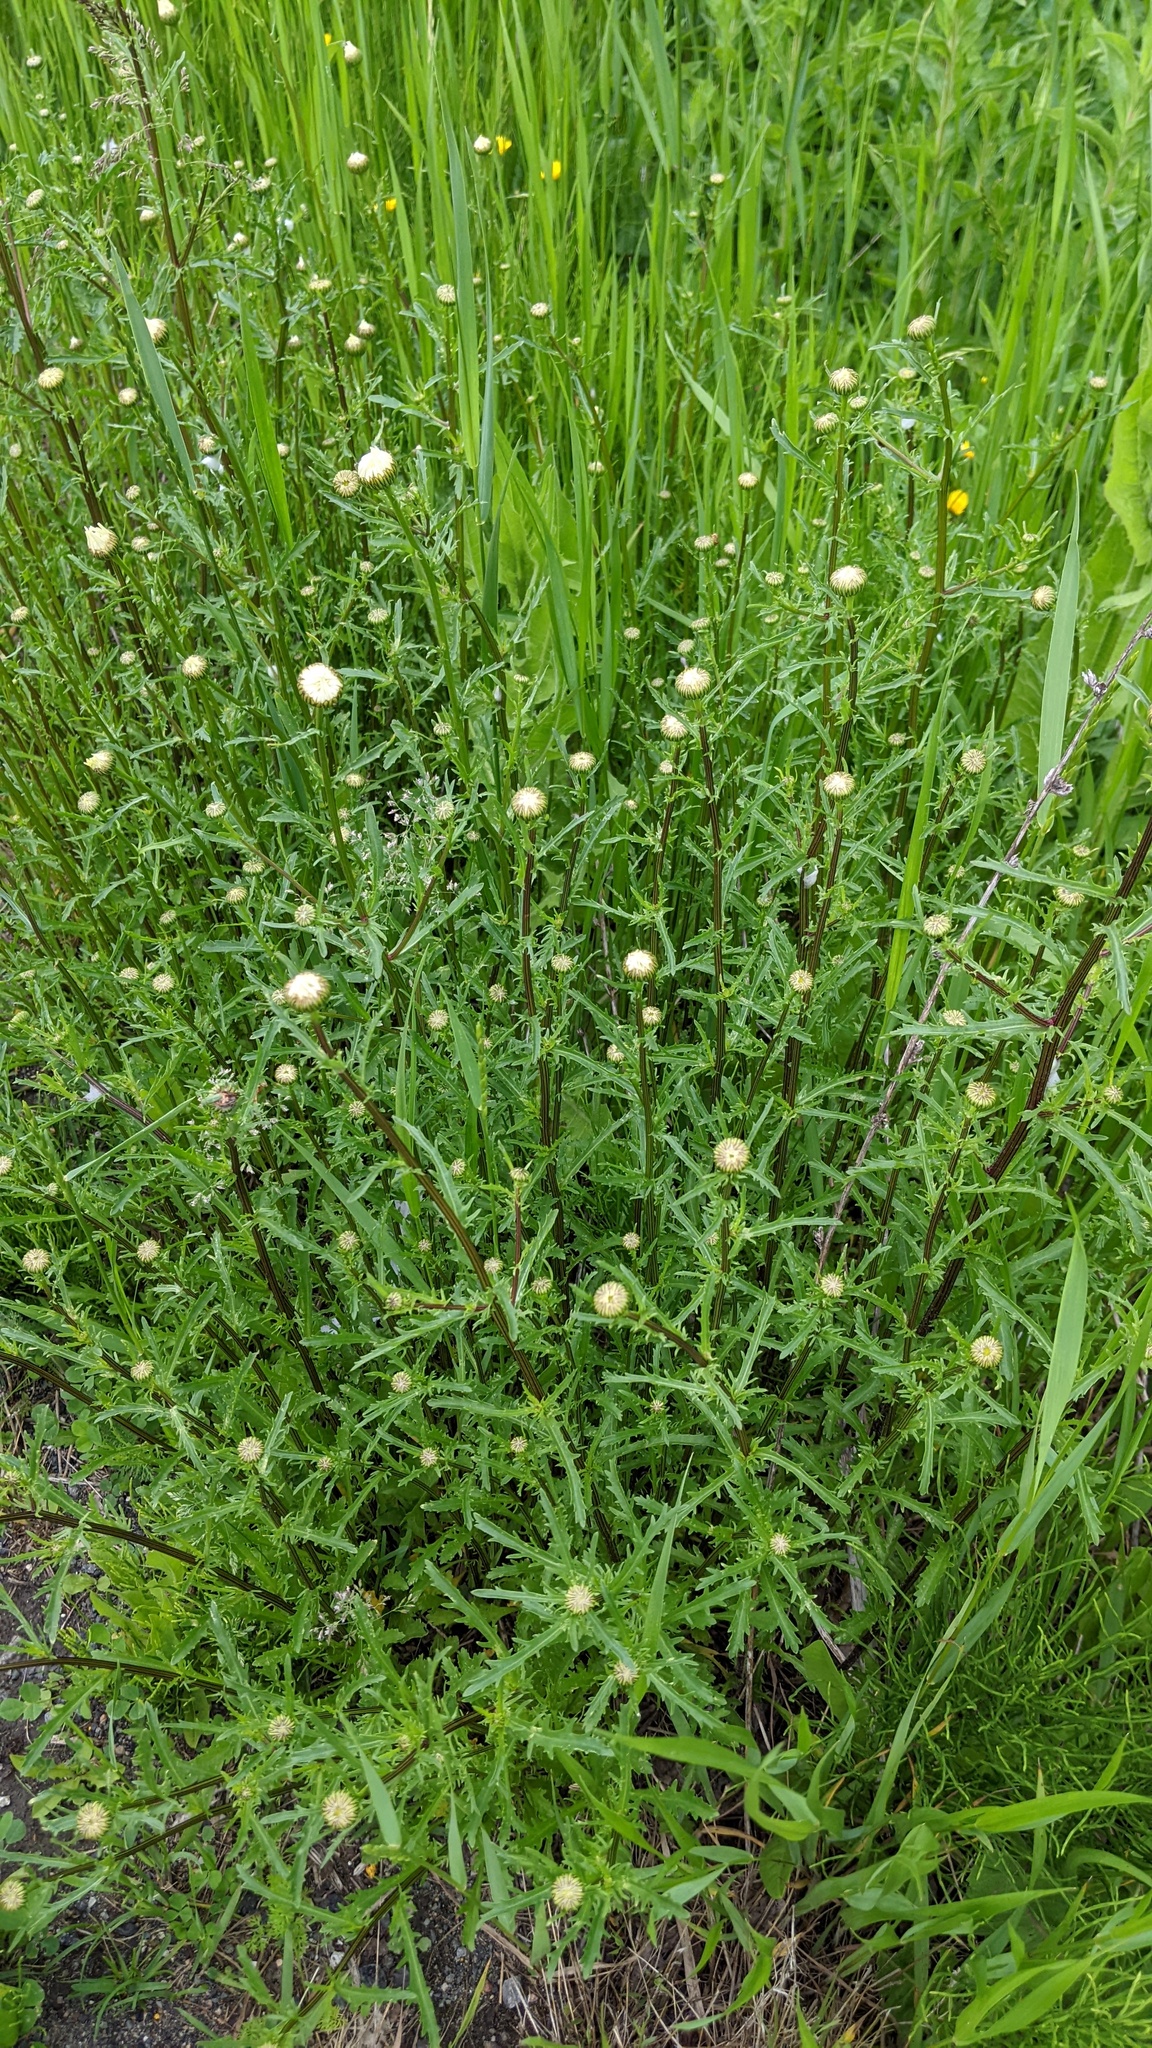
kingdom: Plantae
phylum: Tracheophyta
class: Magnoliopsida
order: Asterales
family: Asteraceae
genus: Leucanthemum
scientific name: Leucanthemum vulgare
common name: Oxeye daisy
